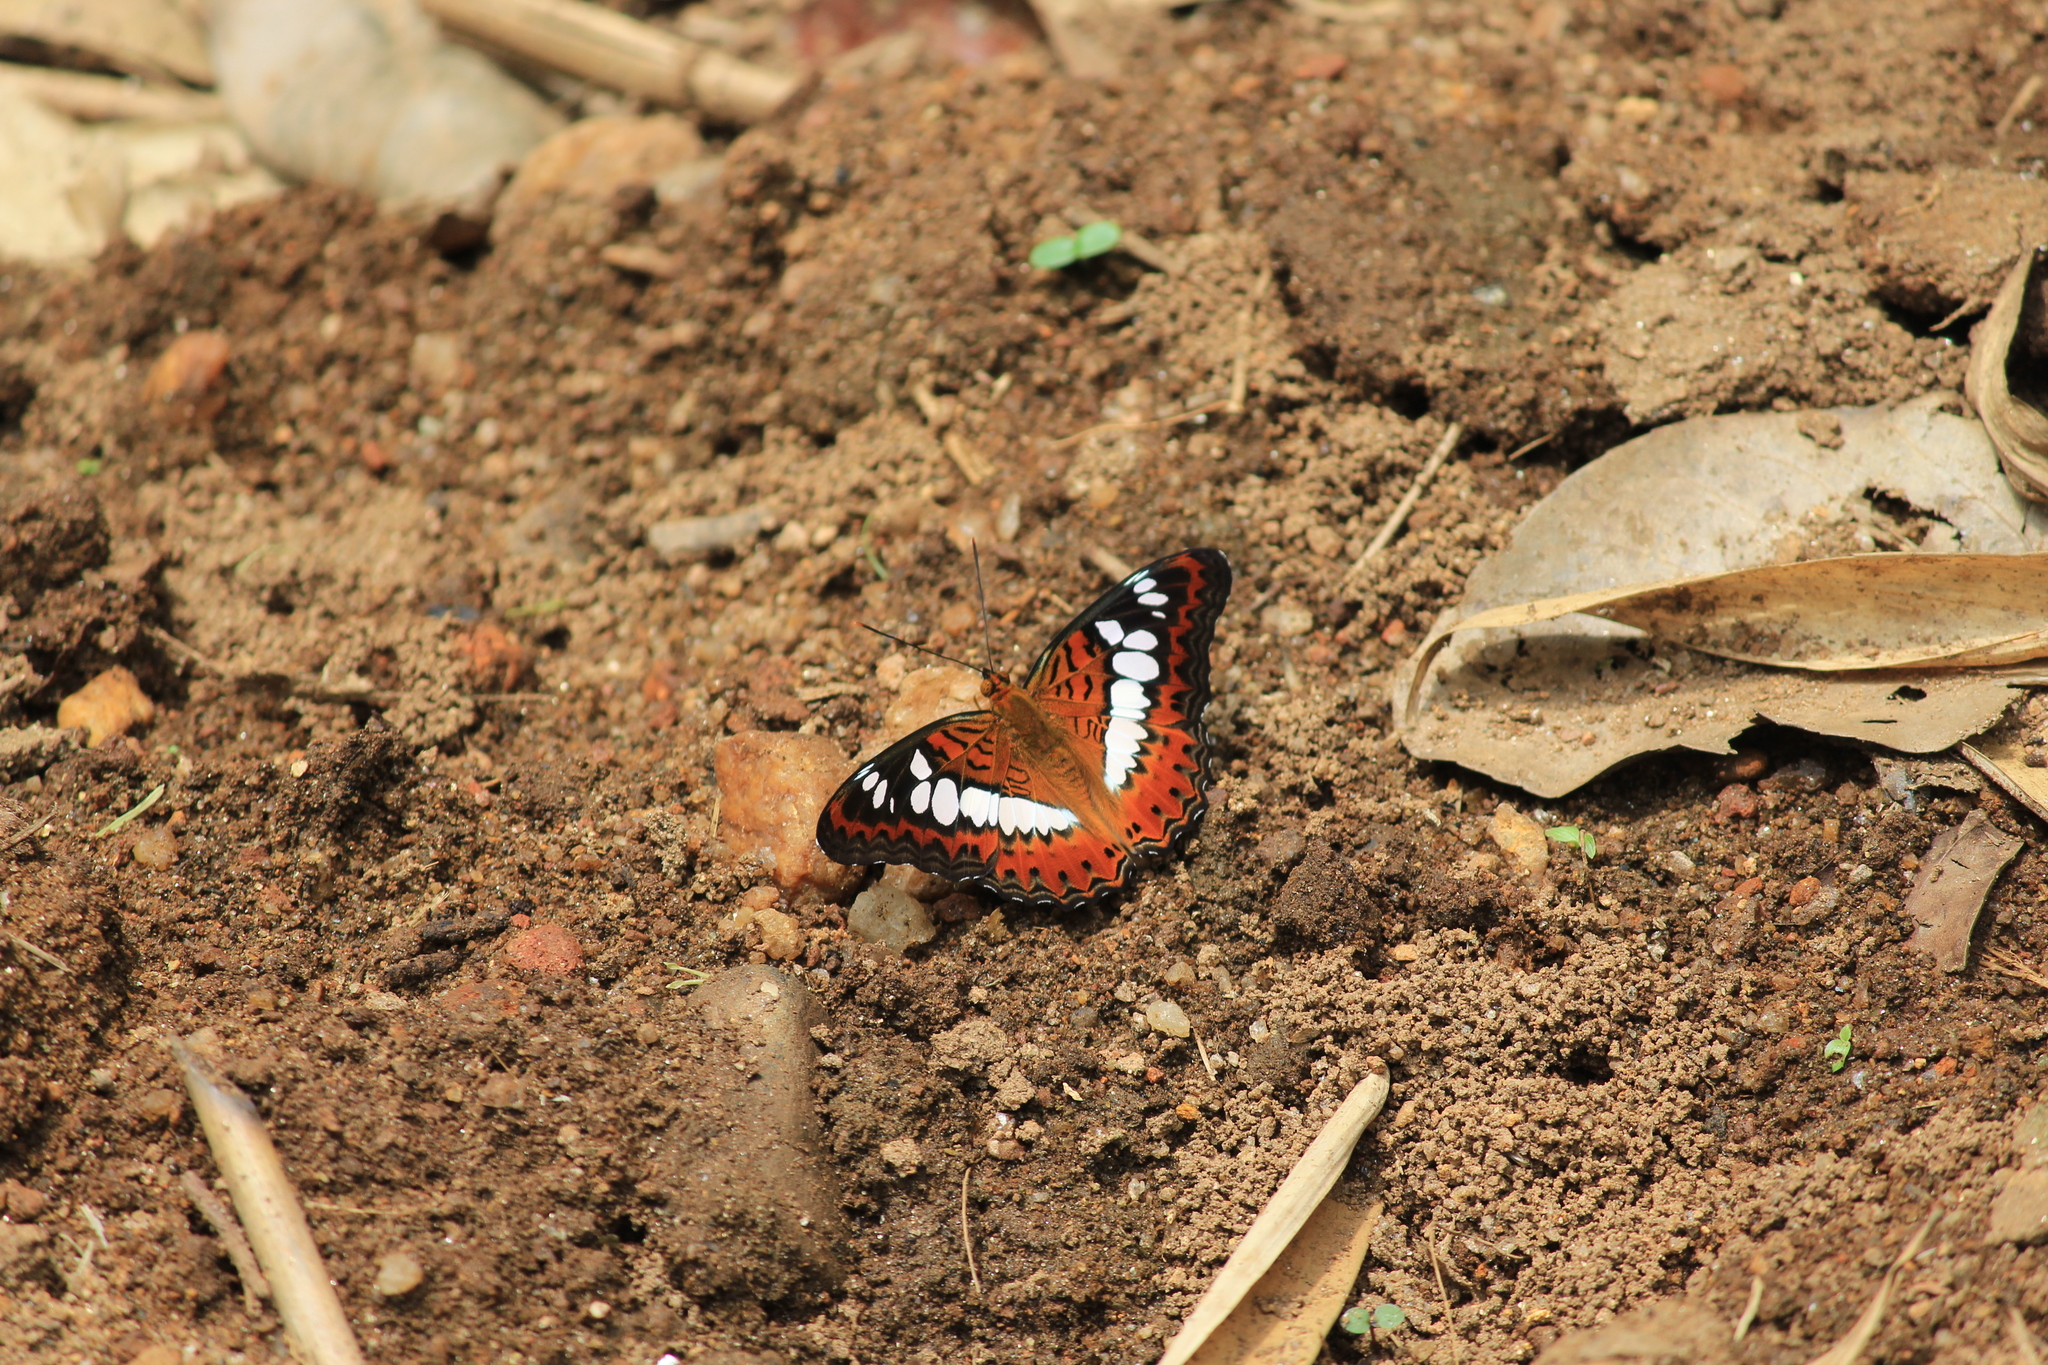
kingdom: Animalia
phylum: Arthropoda
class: Insecta
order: Lepidoptera
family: Nymphalidae
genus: Limenitis
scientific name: Limenitis Moduza procris
